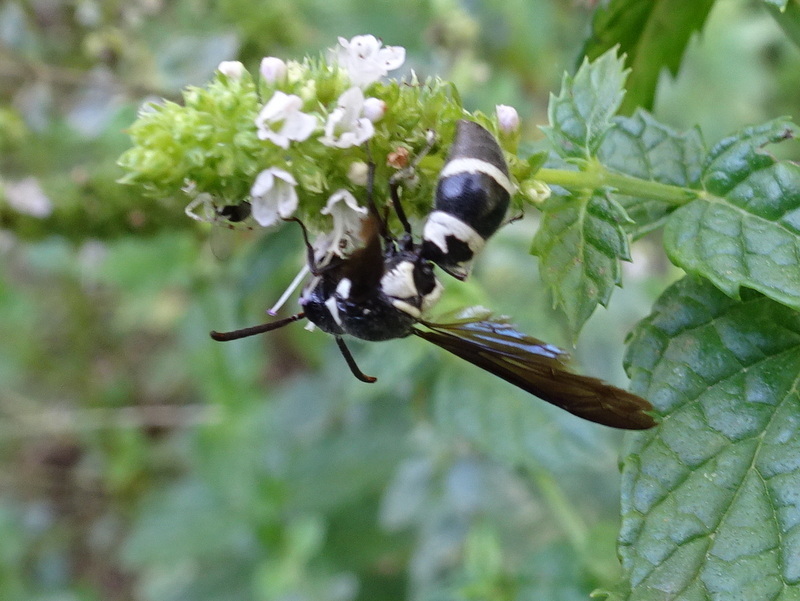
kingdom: Animalia
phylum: Arthropoda
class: Insecta
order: Hymenoptera
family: Eumenidae
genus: Pseudodynerus
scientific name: Pseudodynerus quadrisectus
